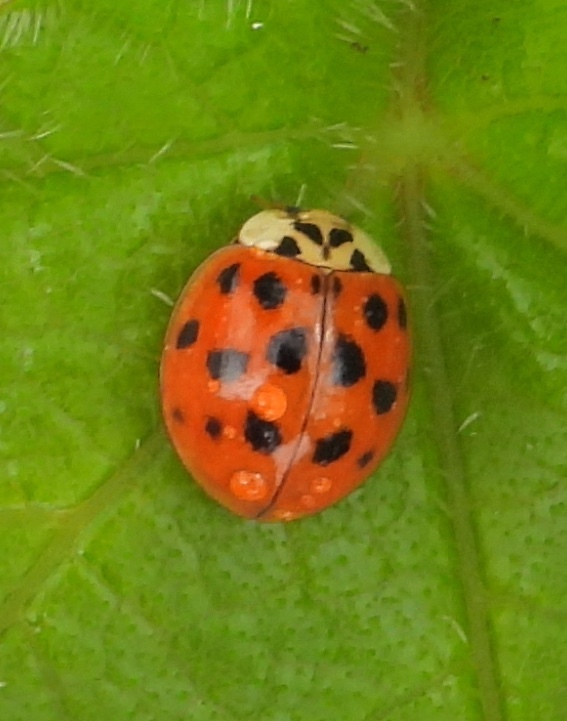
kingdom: Animalia
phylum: Arthropoda
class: Insecta
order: Coleoptera
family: Coccinellidae
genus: Harmonia
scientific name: Harmonia axyridis
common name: Harlequin ladybird
